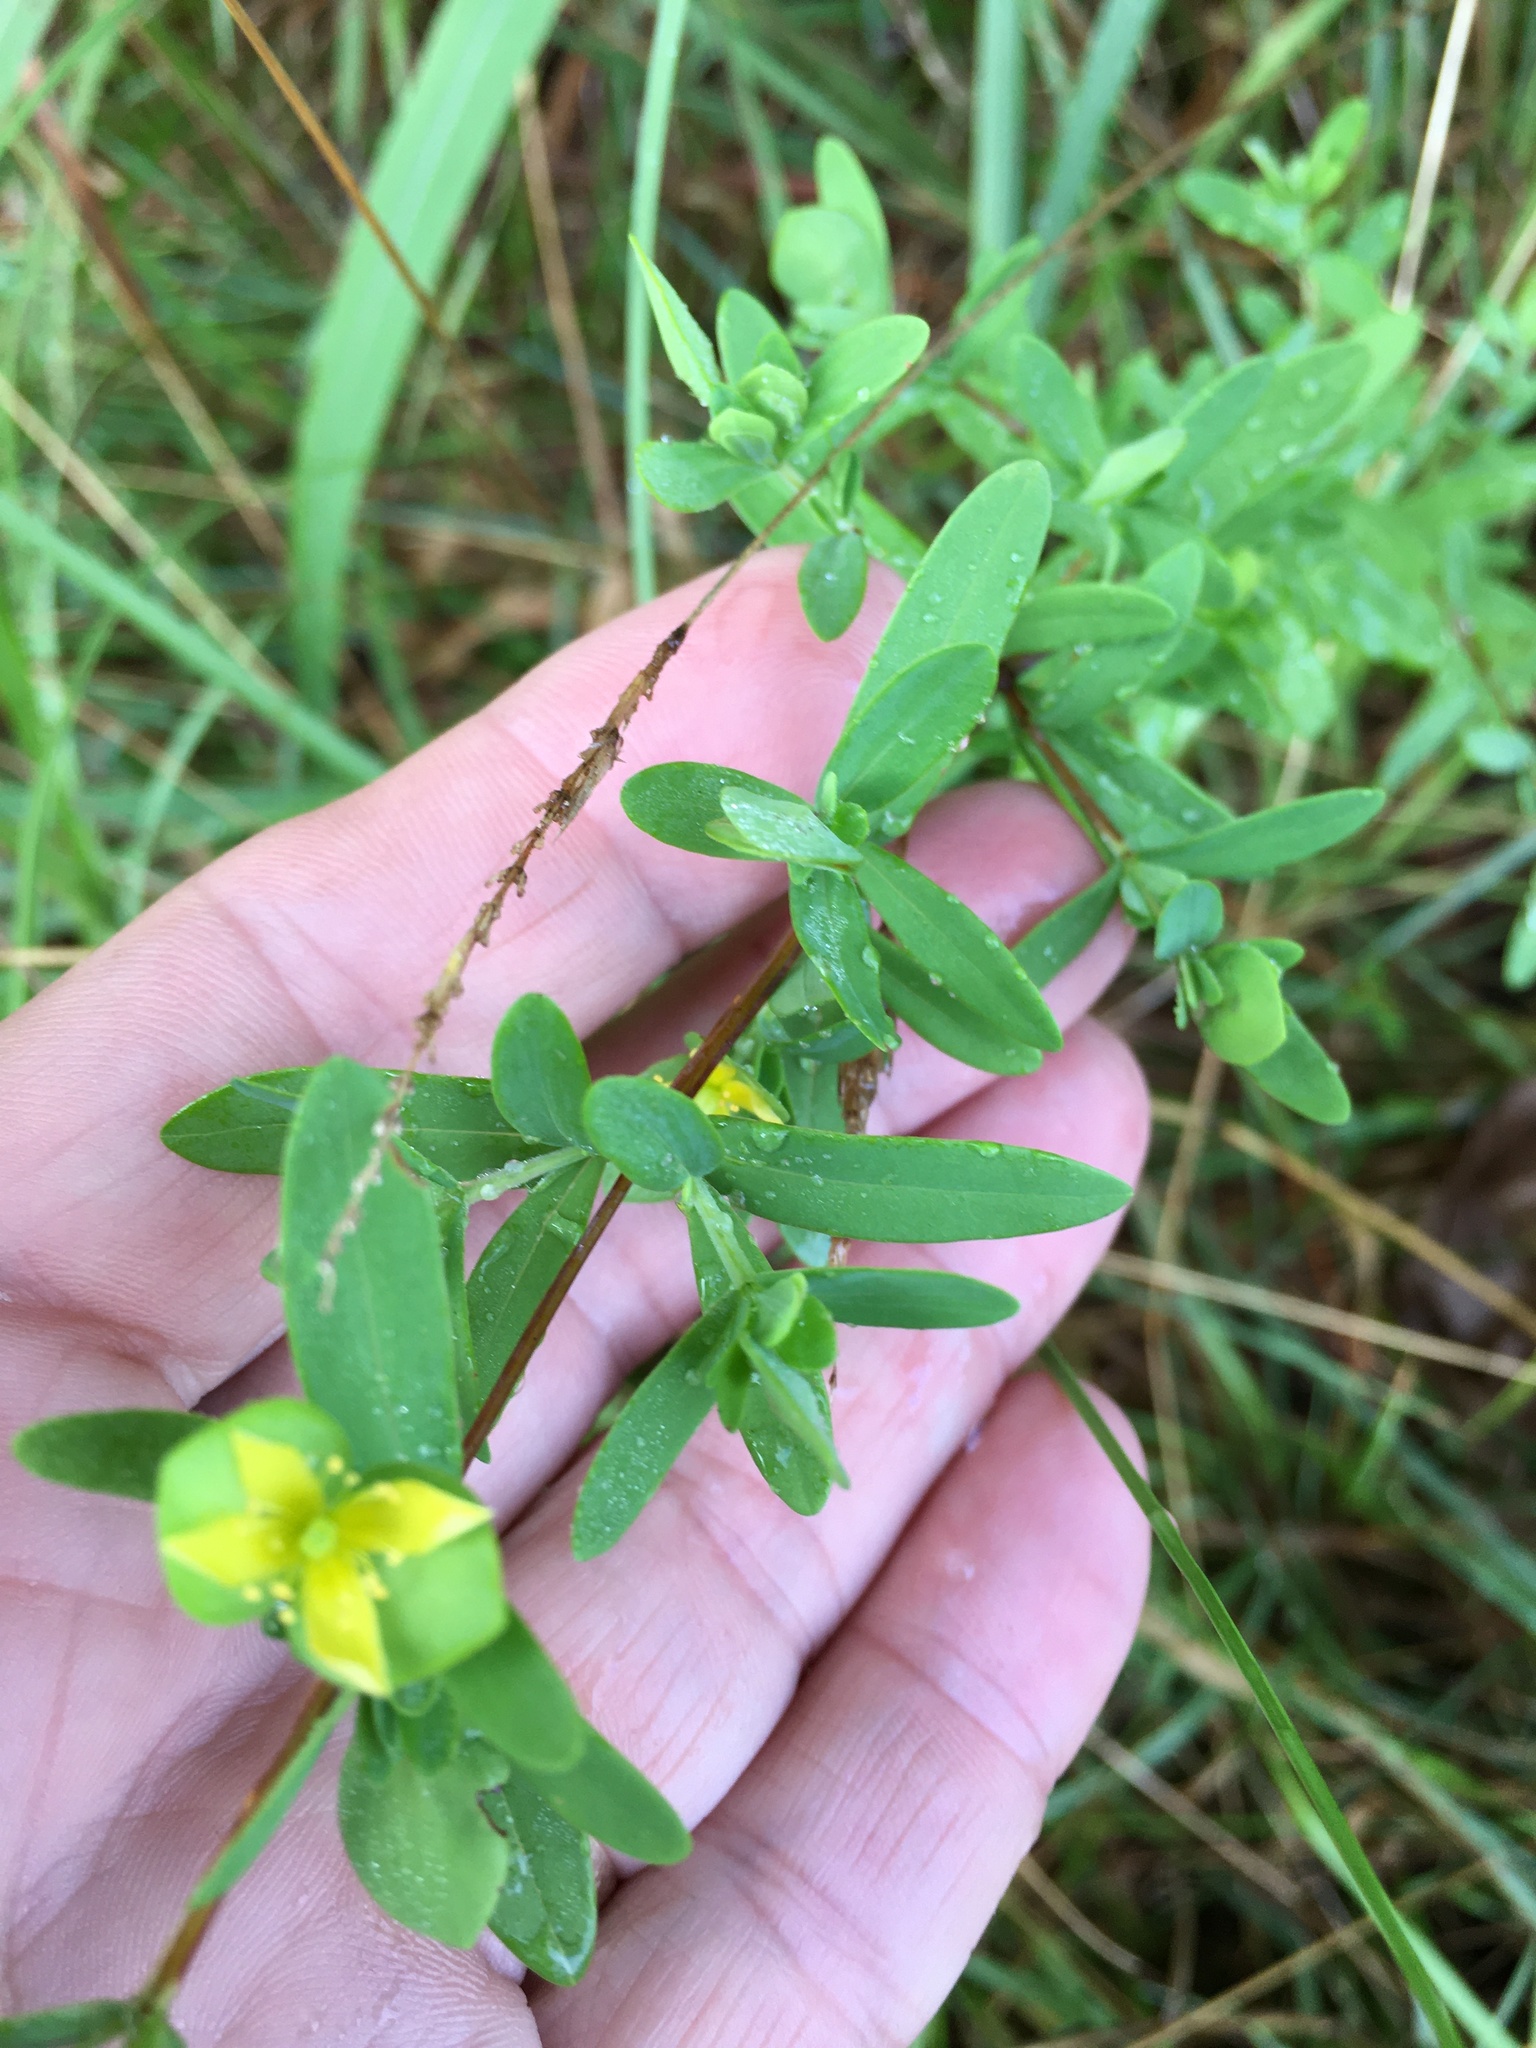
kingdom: Plantae
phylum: Tracheophyta
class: Magnoliopsida
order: Malpighiales
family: Hypericaceae
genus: Hypericum
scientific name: Hypericum hypericoides
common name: St. andrew's cross
